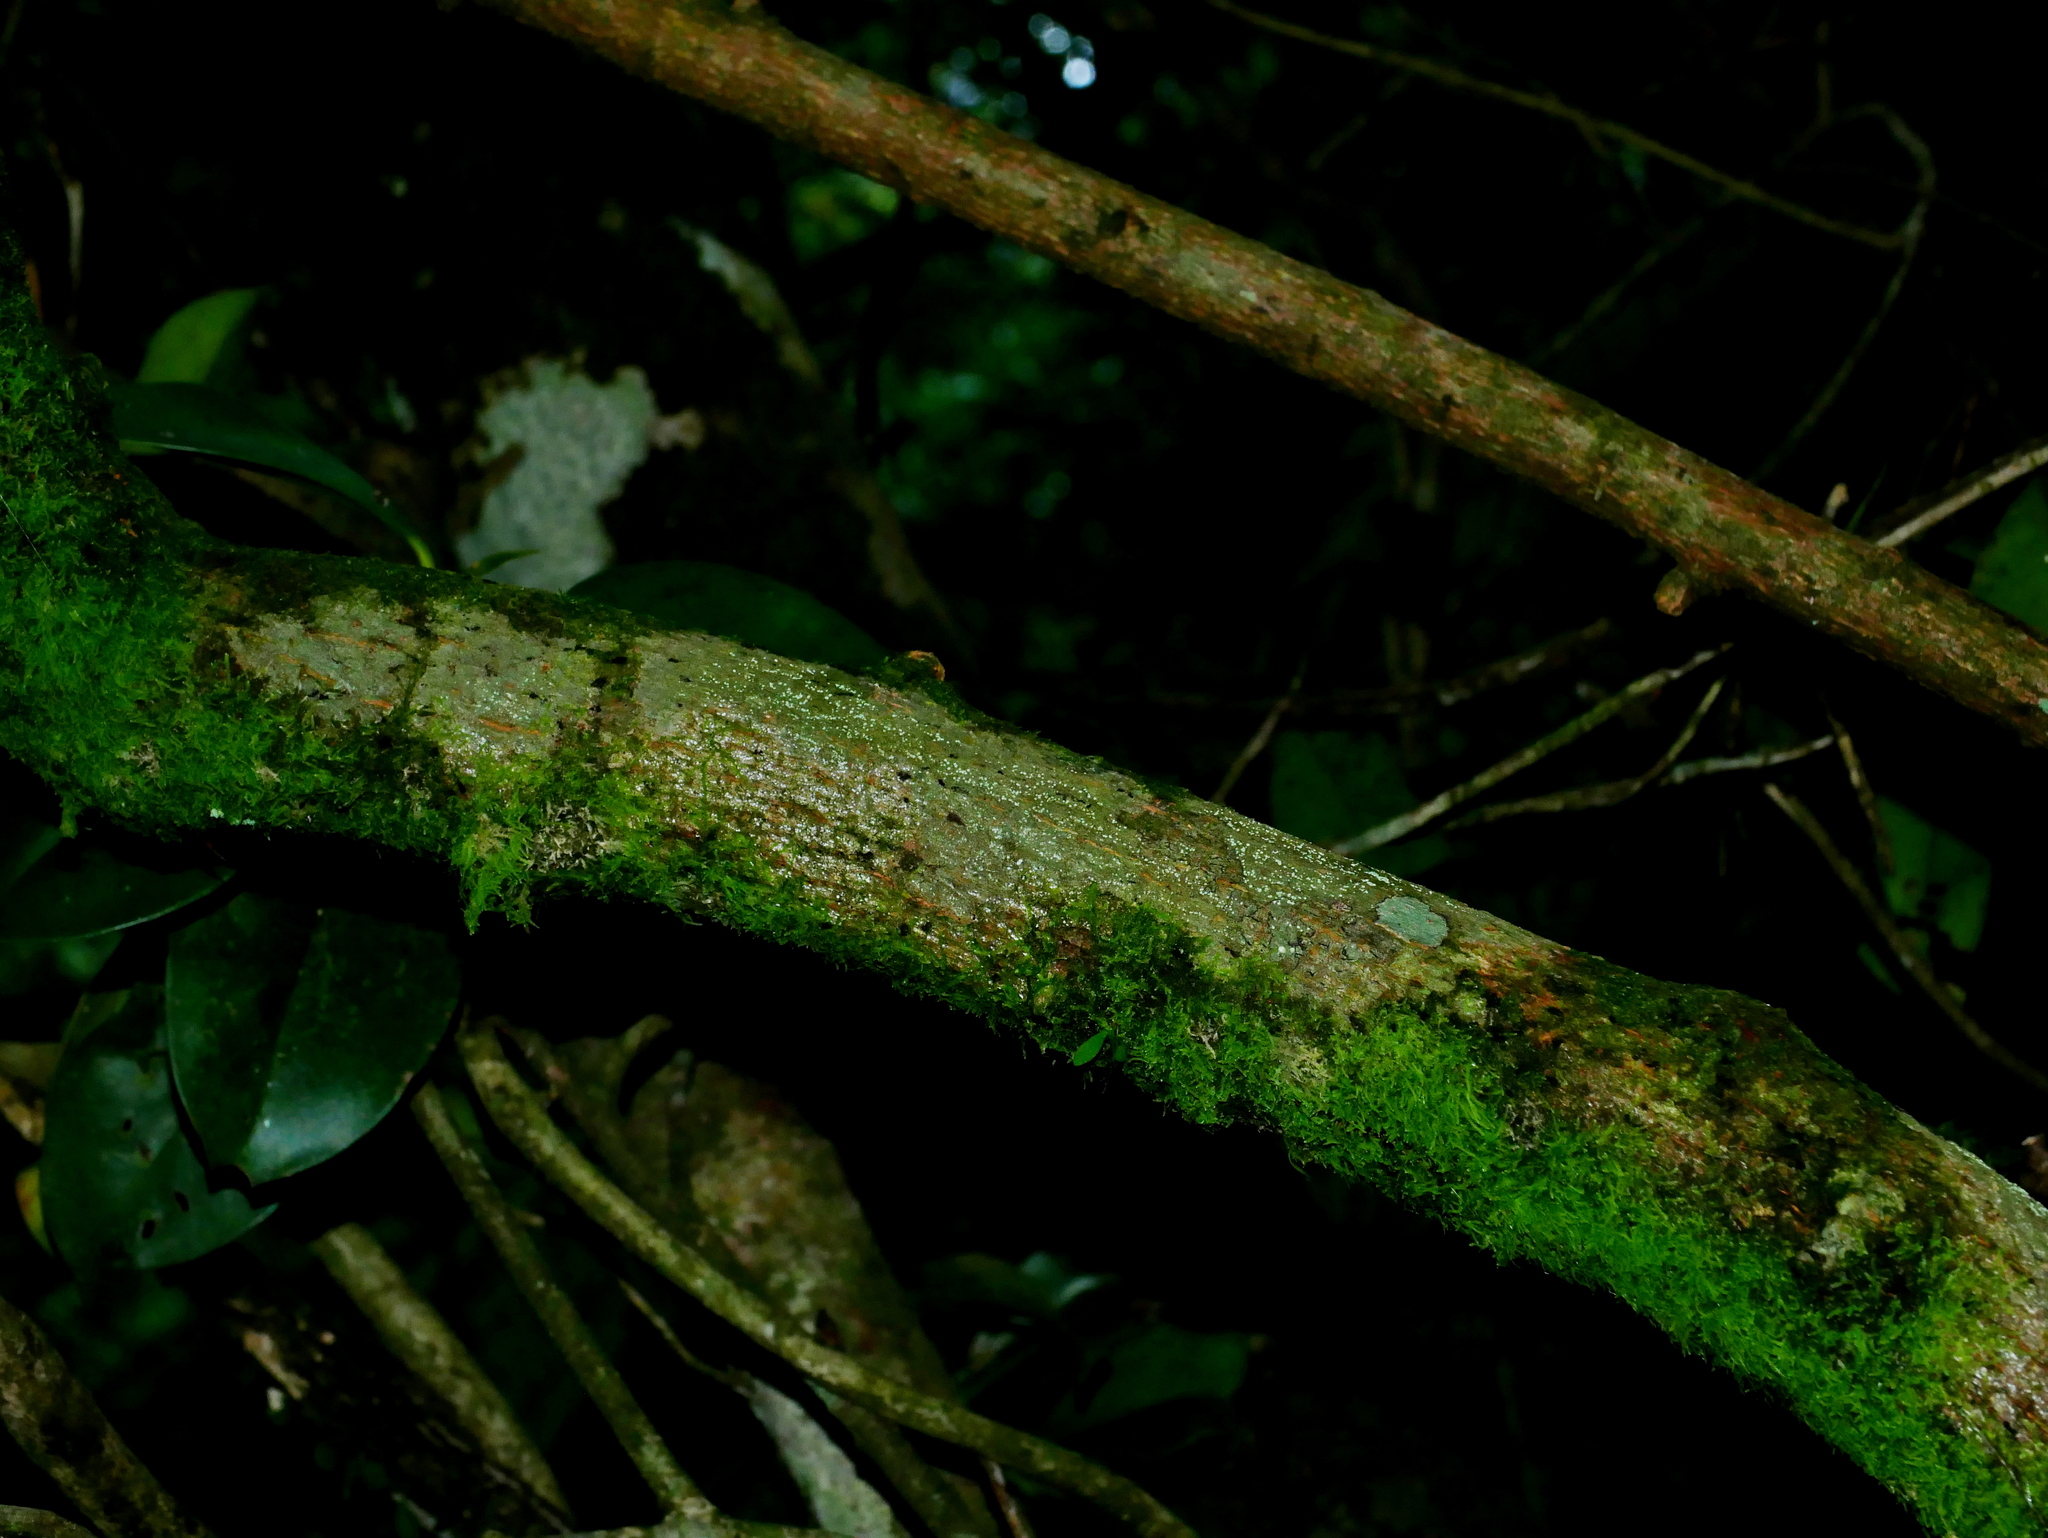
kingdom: Plantae
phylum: Tracheophyta
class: Magnoliopsida
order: Ericales
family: Actinidiaceae
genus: Actinidia
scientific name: Actinidia callosa
